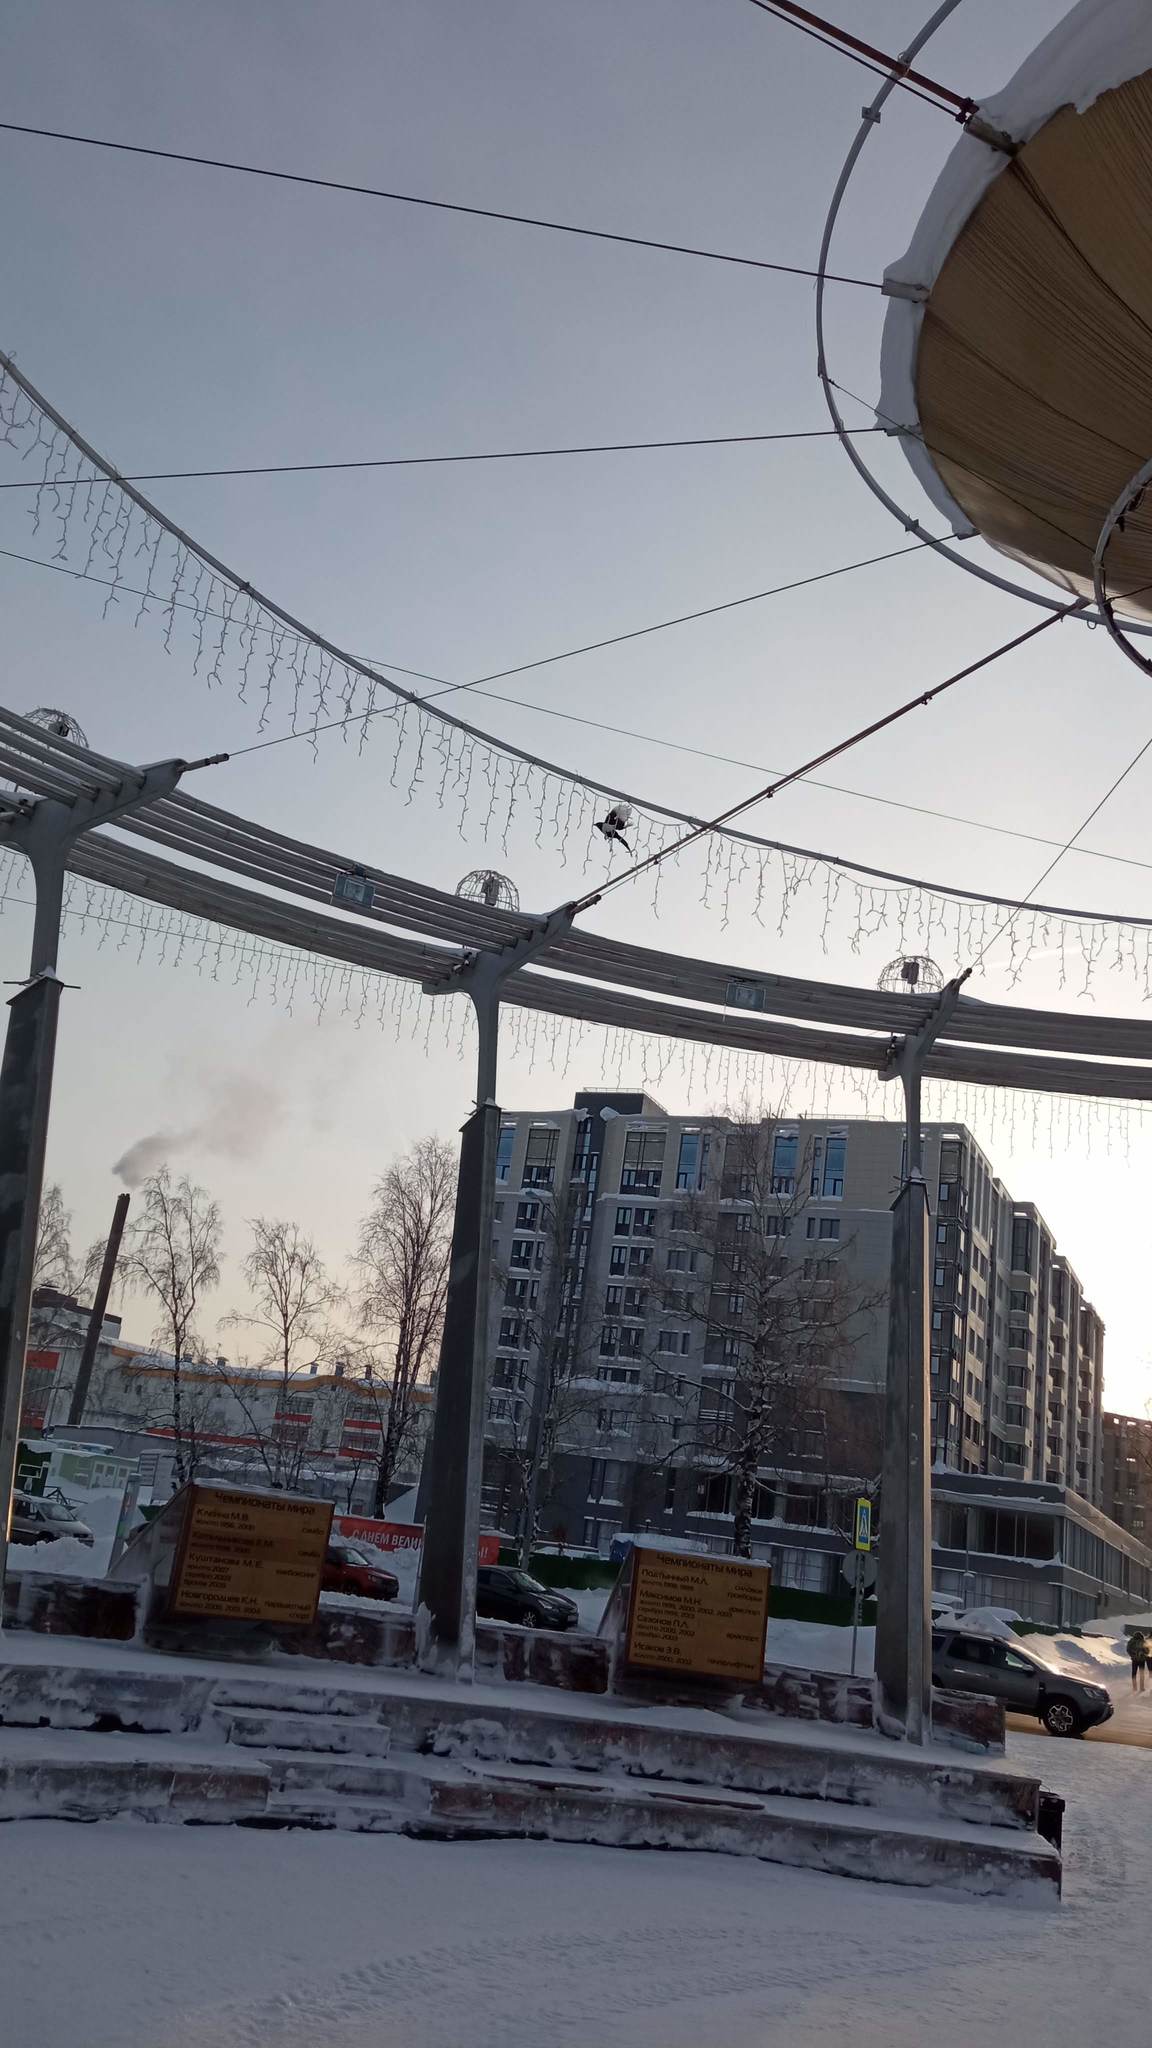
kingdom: Animalia
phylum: Chordata
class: Aves
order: Passeriformes
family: Corvidae
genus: Pica
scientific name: Pica pica
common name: Eurasian magpie
